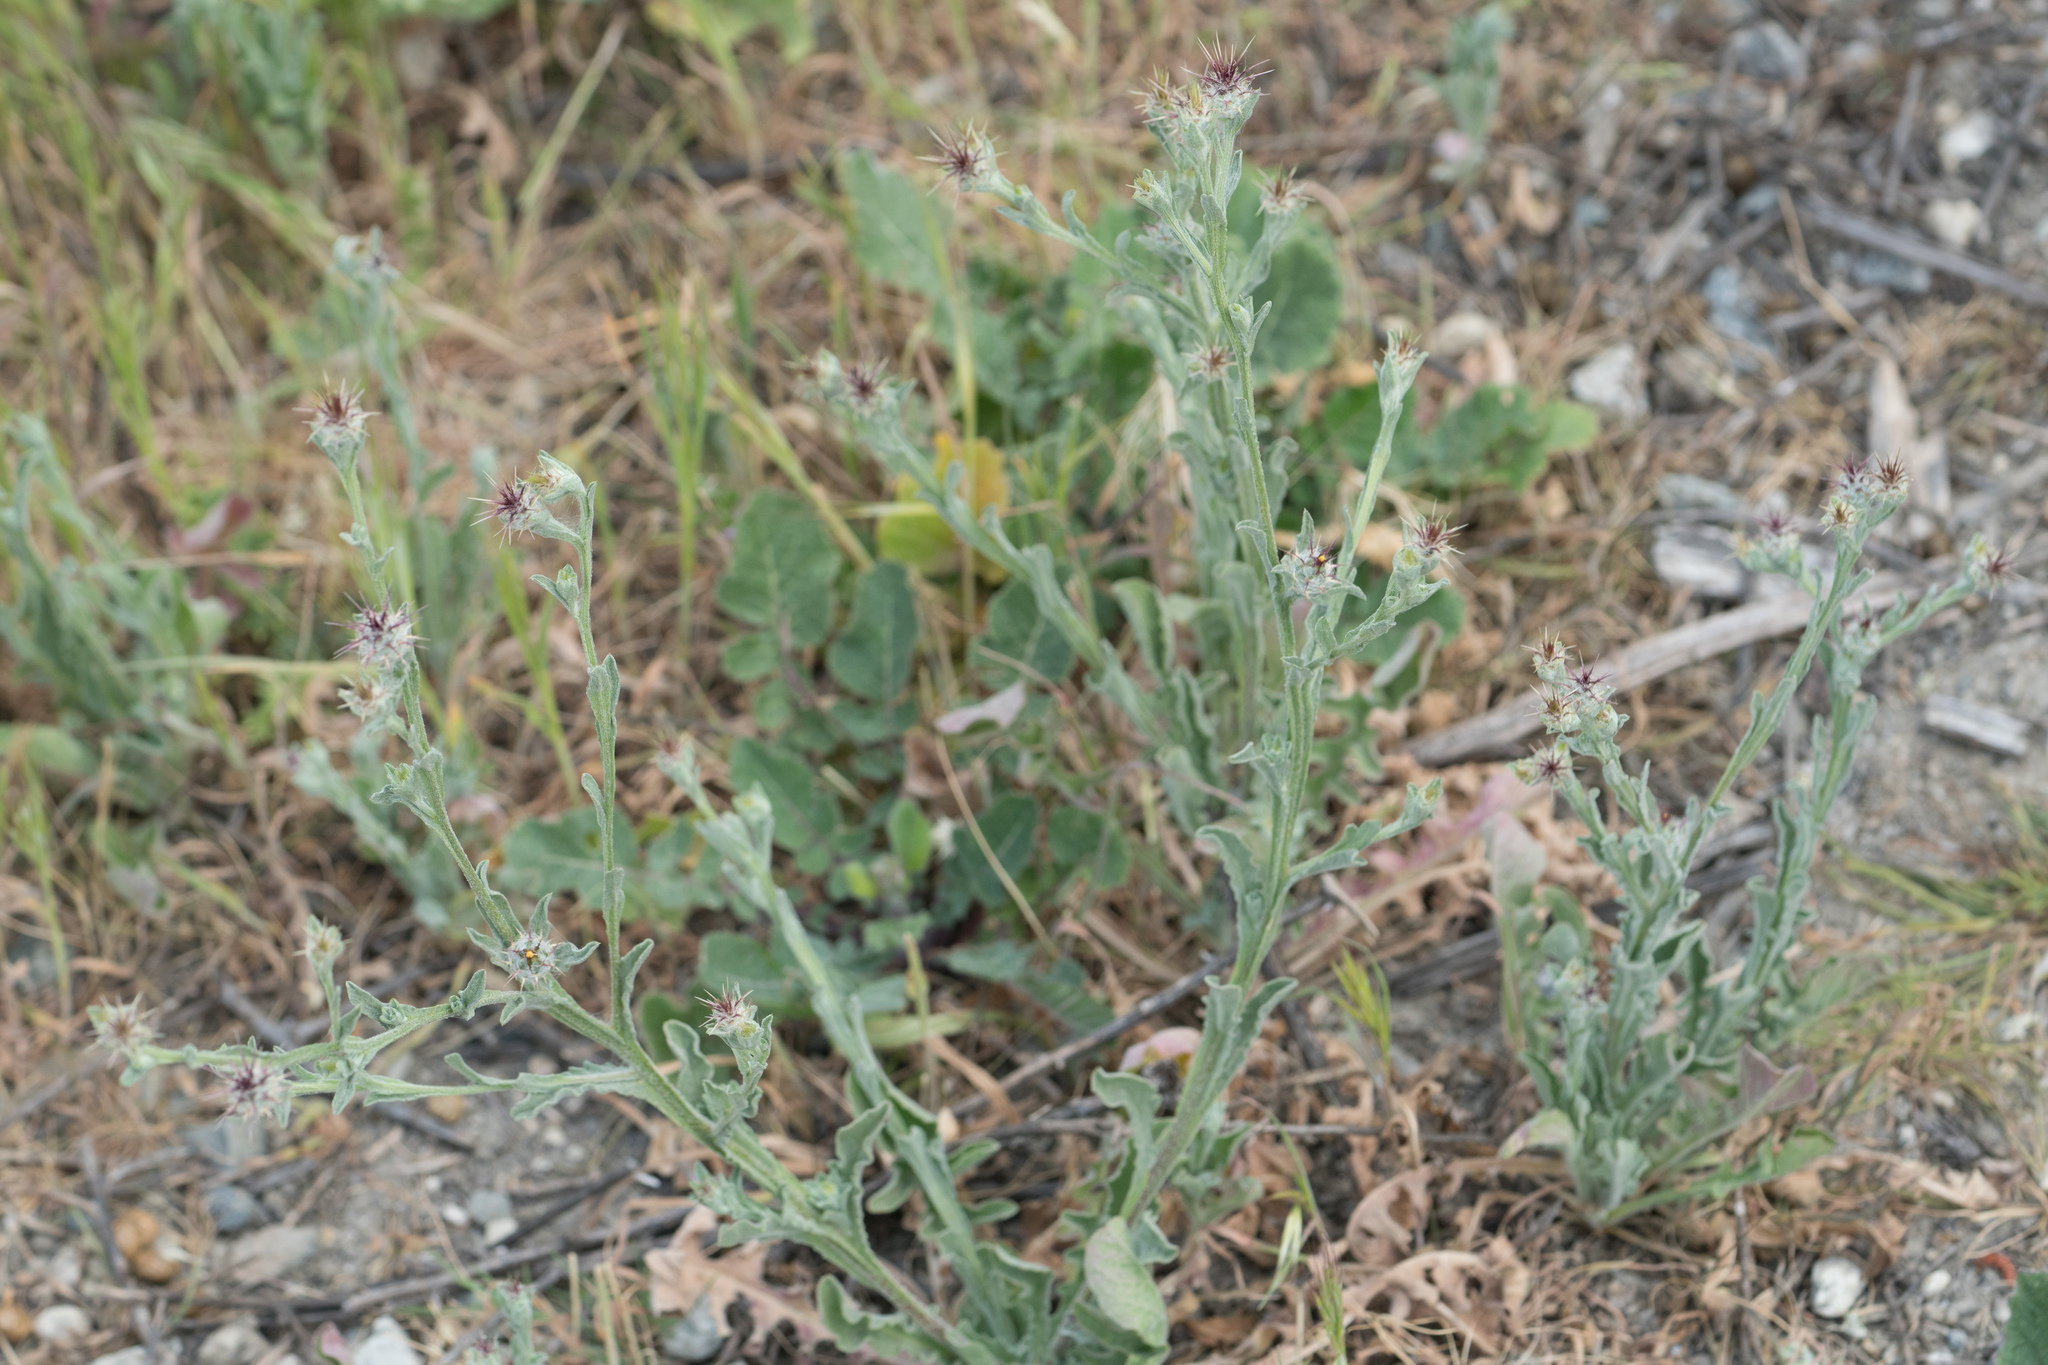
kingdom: Plantae
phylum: Tracheophyta
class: Magnoliopsida
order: Asterales
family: Asteraceae
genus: Centaurea
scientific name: Centaurea melitensis
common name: Maltese star-thistle
